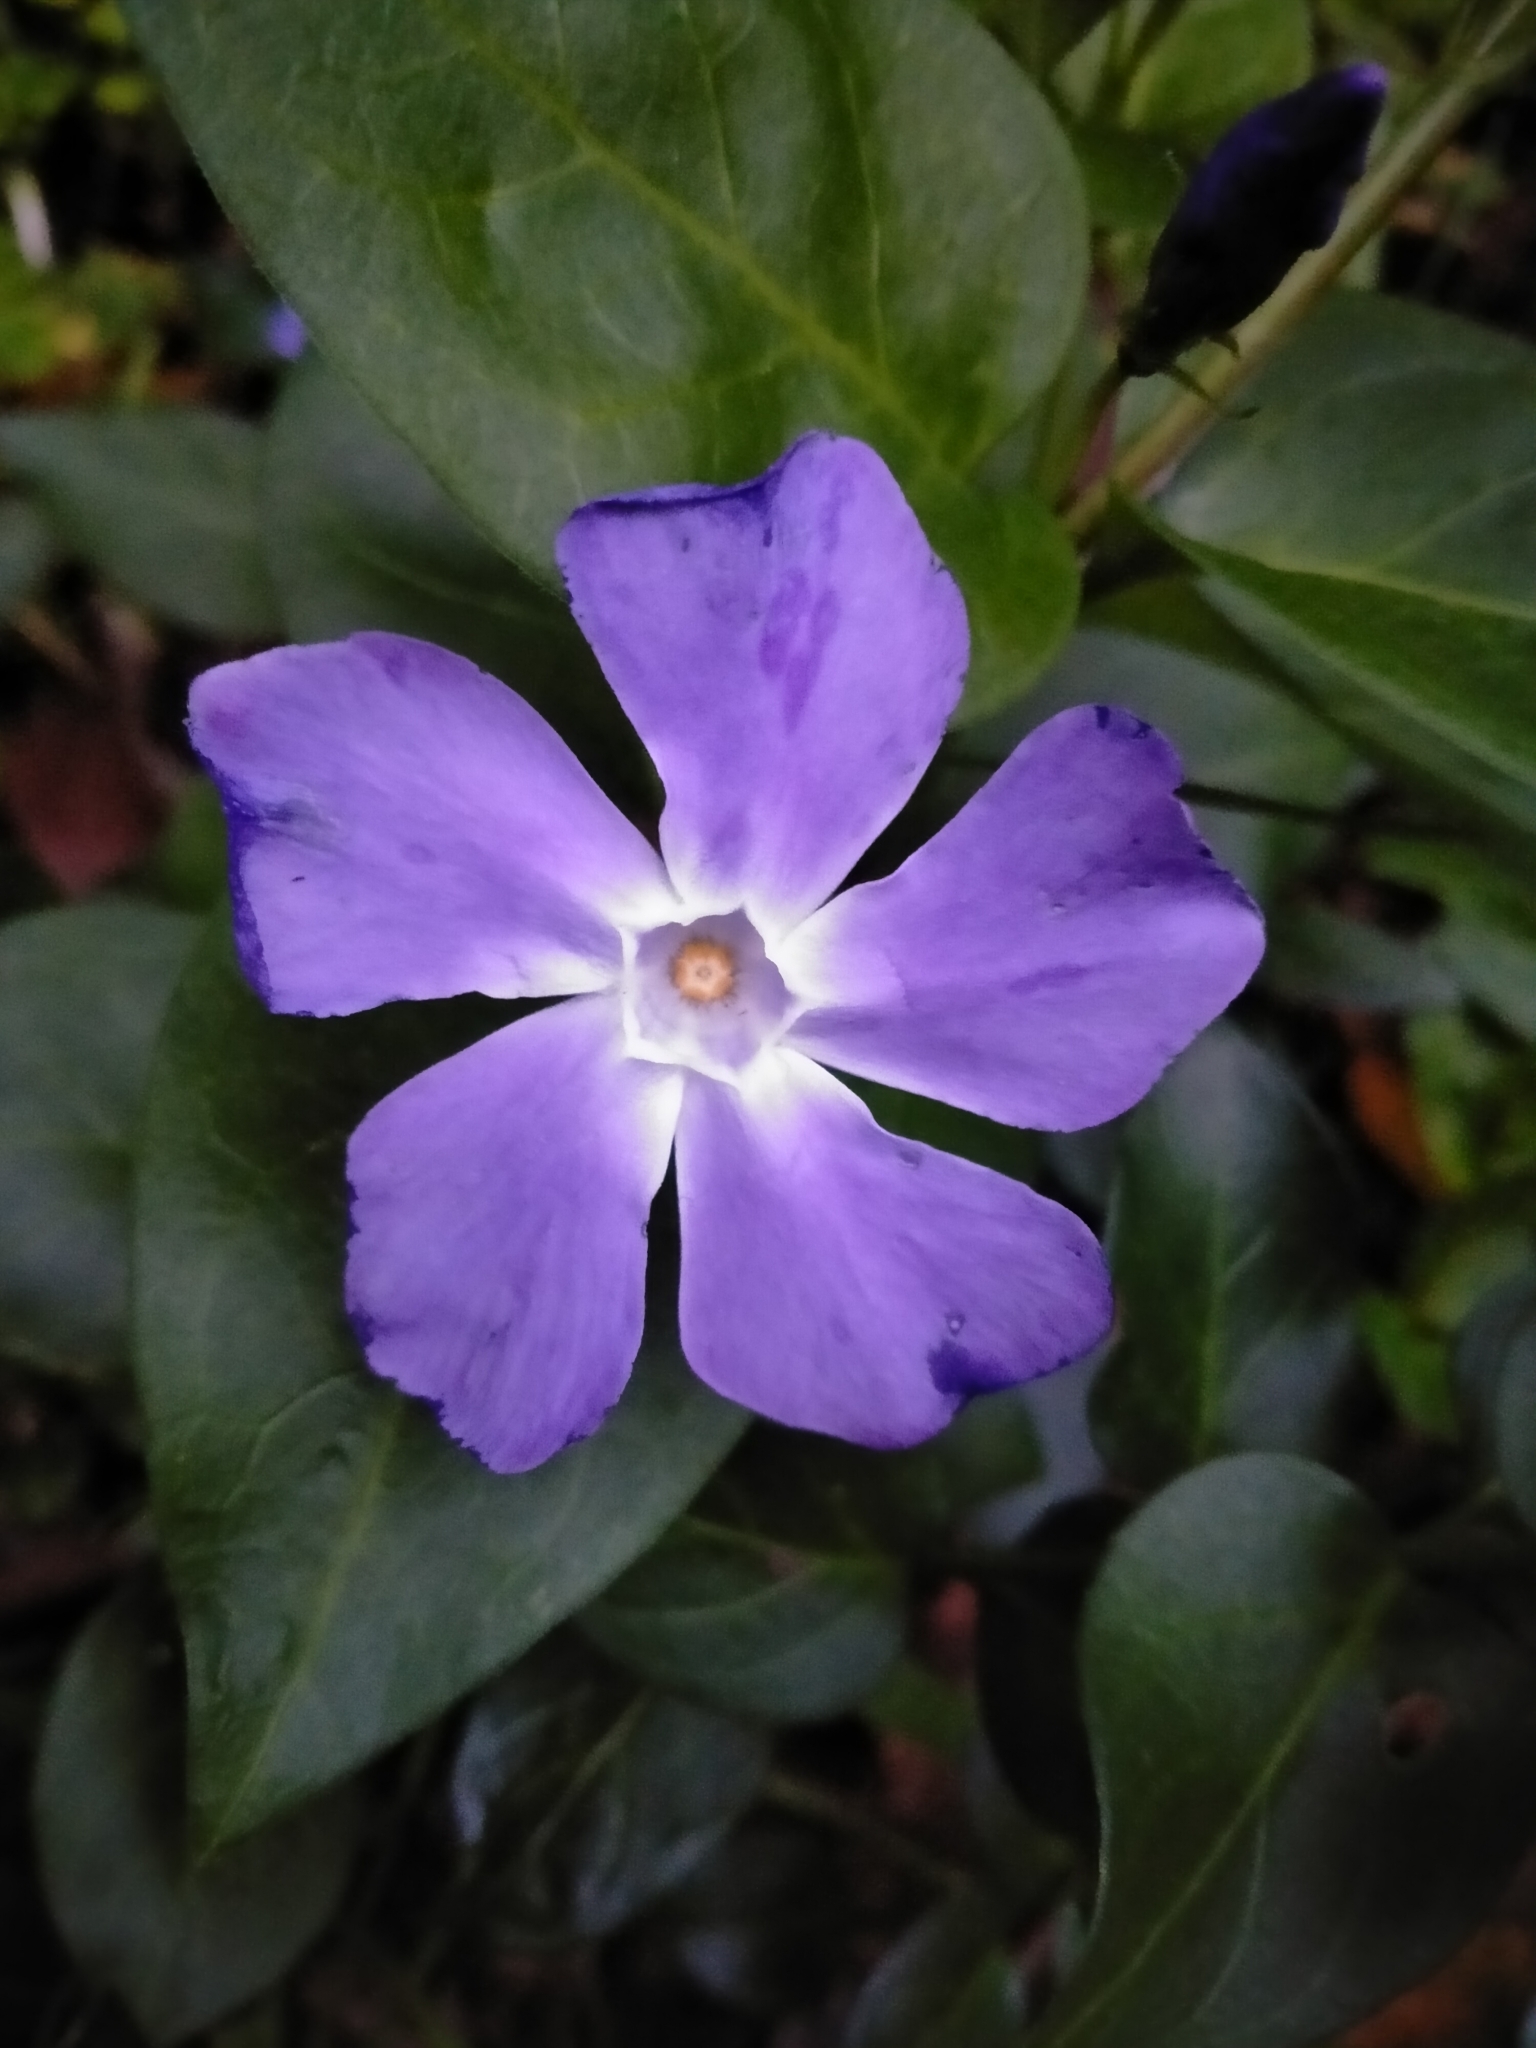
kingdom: Plantae
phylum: Tracheophyta
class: Magnoliopsida
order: Gentianales
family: Apocynaceae
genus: Vinca
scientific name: Vinca major
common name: Greater periwinkle
